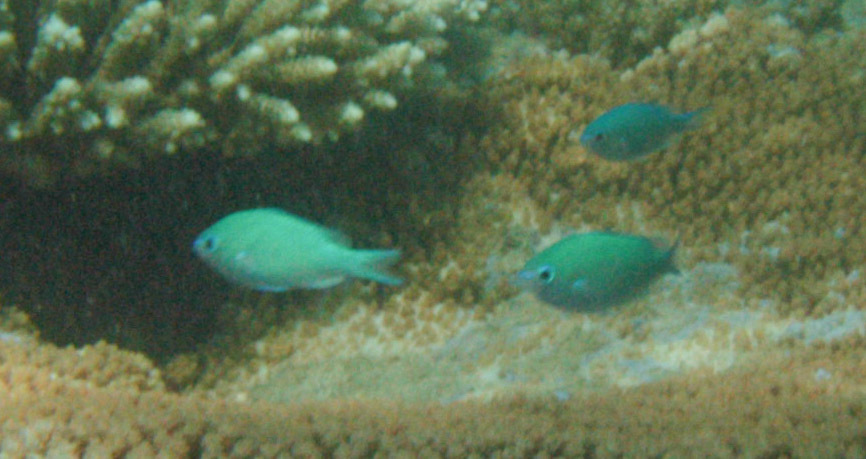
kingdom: Animalia
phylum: Chordata
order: Perciformes
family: Pomacentridae
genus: Chromis
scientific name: Chromis viridis
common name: Blue-green chromis
